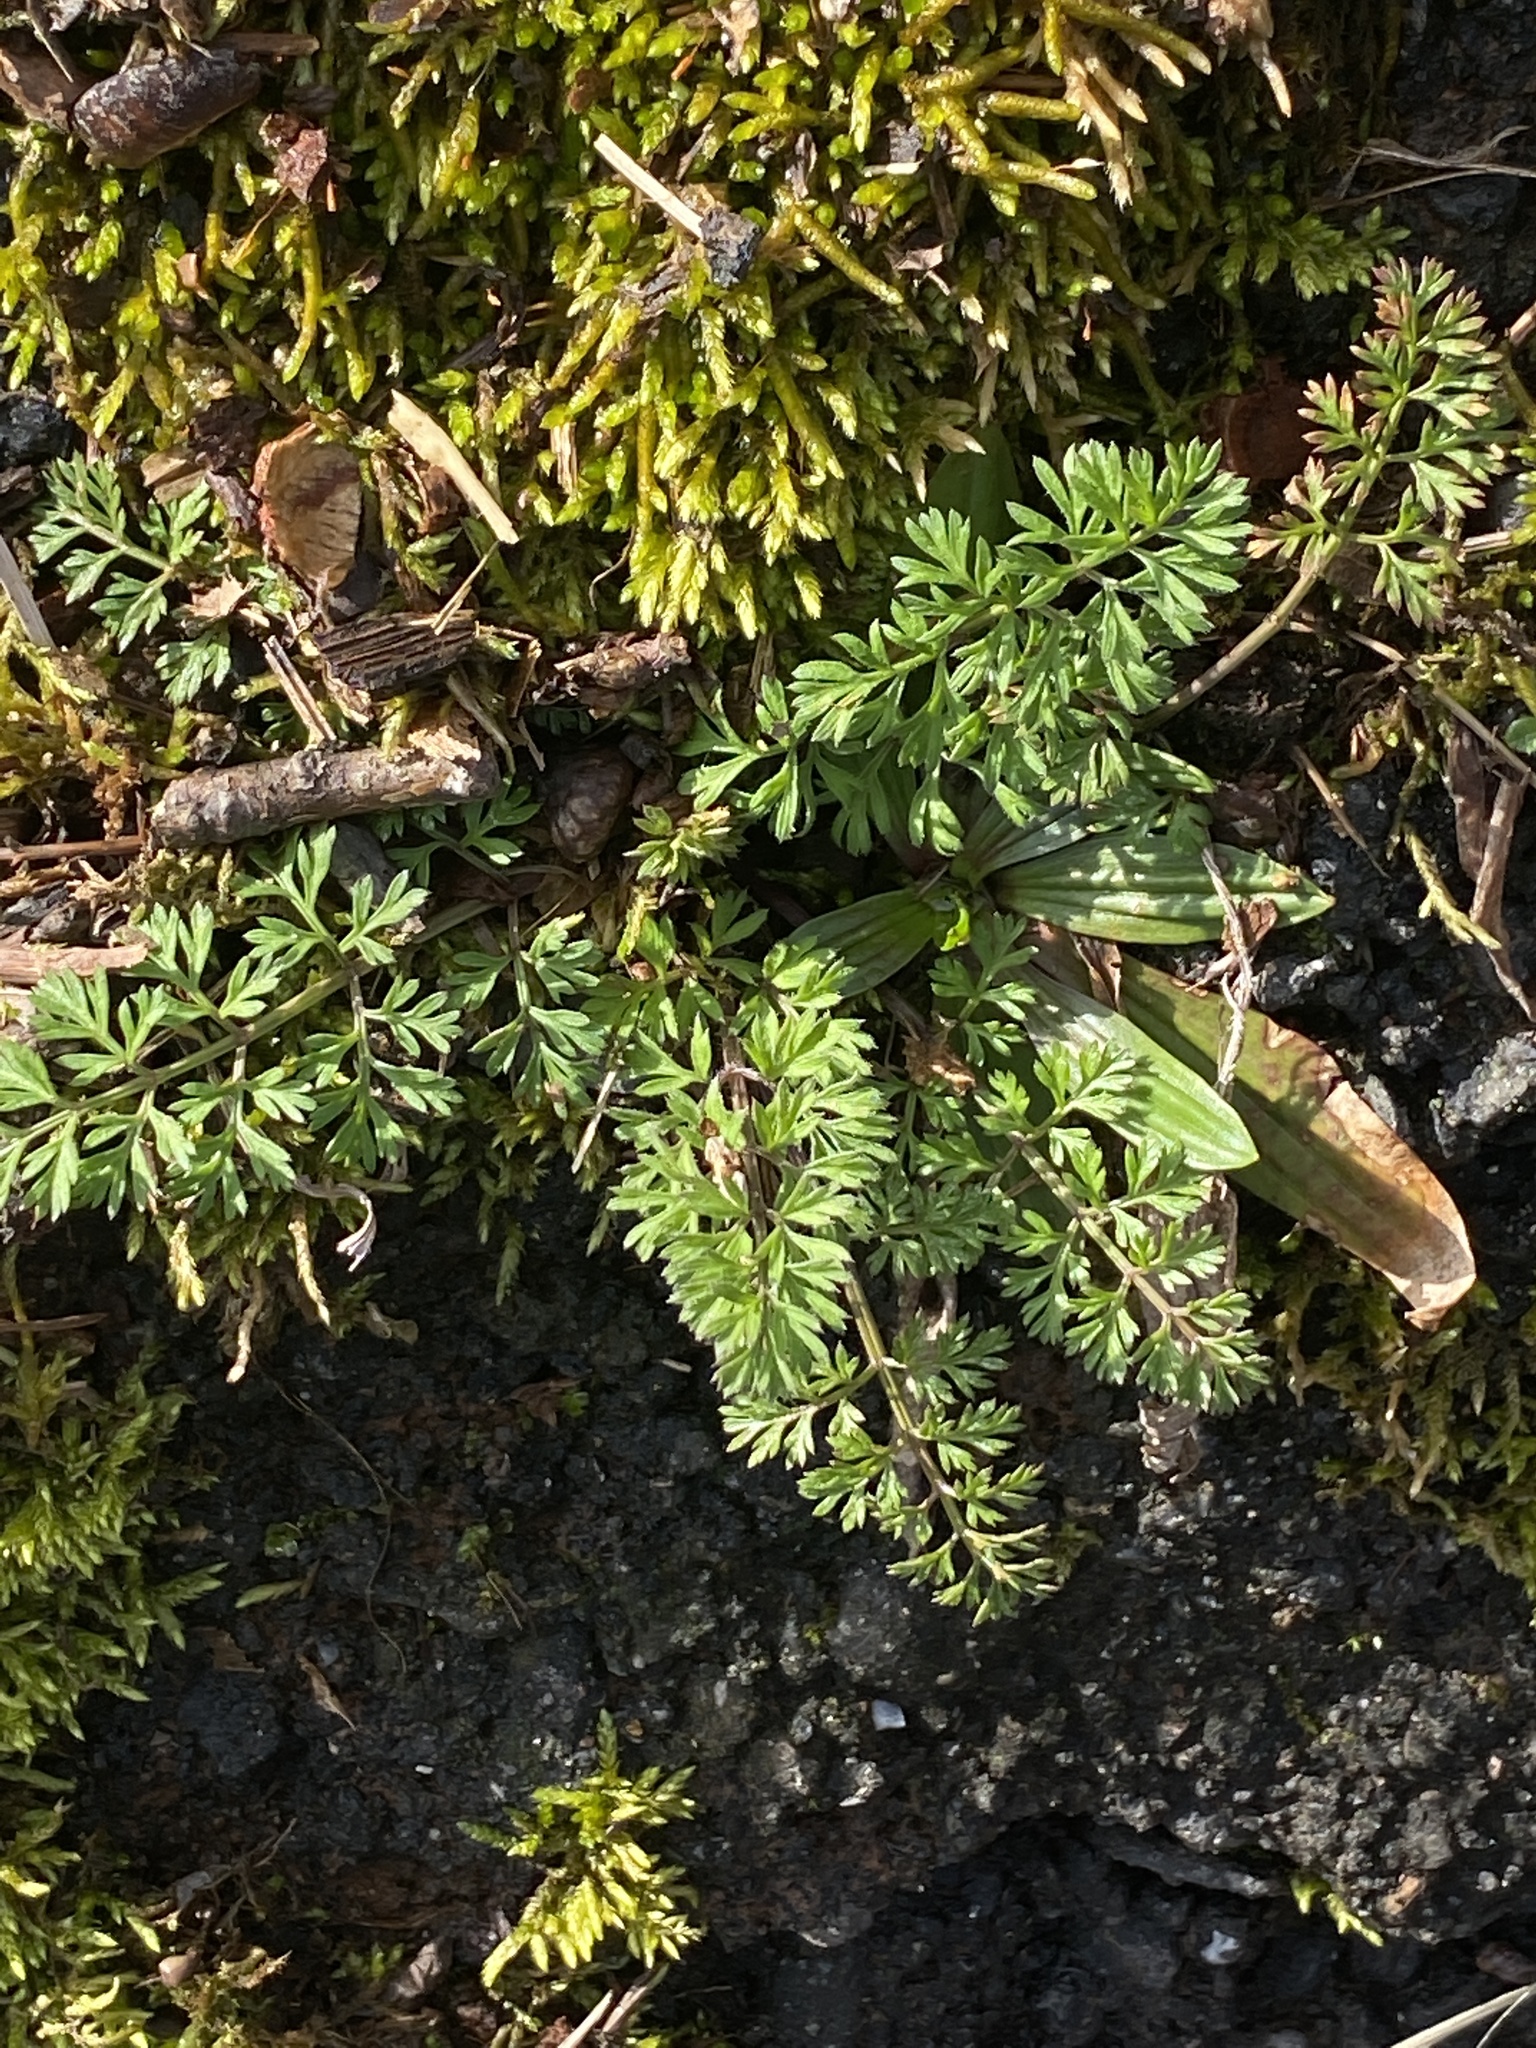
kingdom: Plantae
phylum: Tracheophyta
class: Magnoliopsida
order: Apiales
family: Apiaceae
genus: Daucus
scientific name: Daucus carota
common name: Wild carrot
